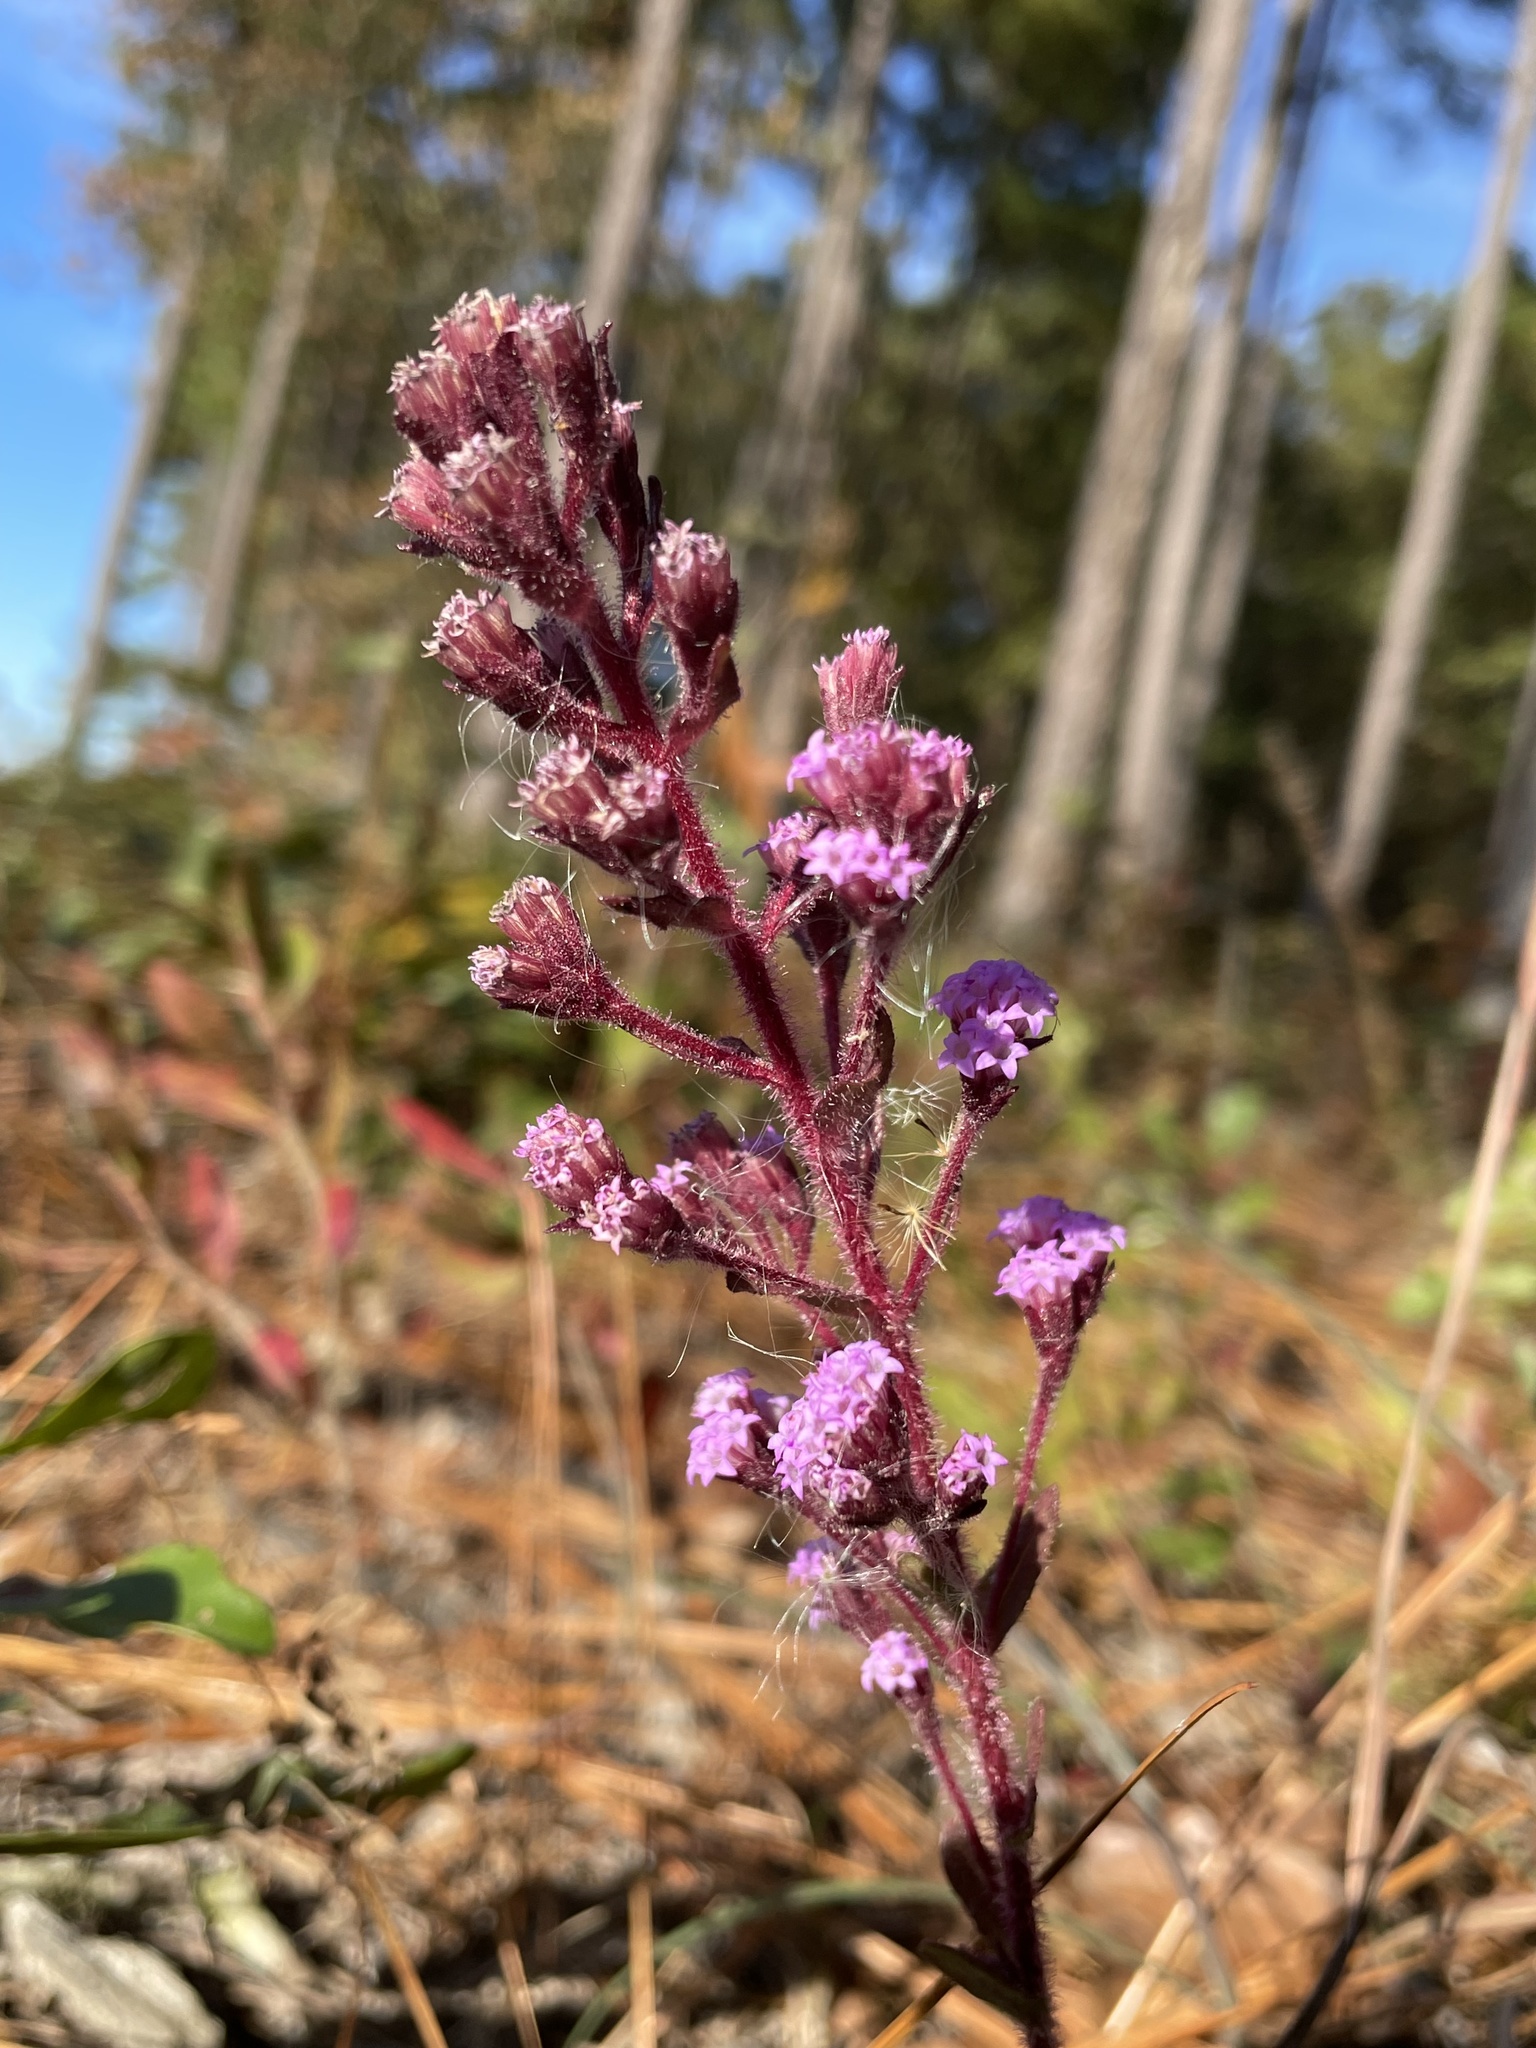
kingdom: Plantae
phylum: Tracheophyta
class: Magnoliopsida
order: Asterales
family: Asteraceae
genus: Carphephorus
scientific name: Carphephorus paniculatus
